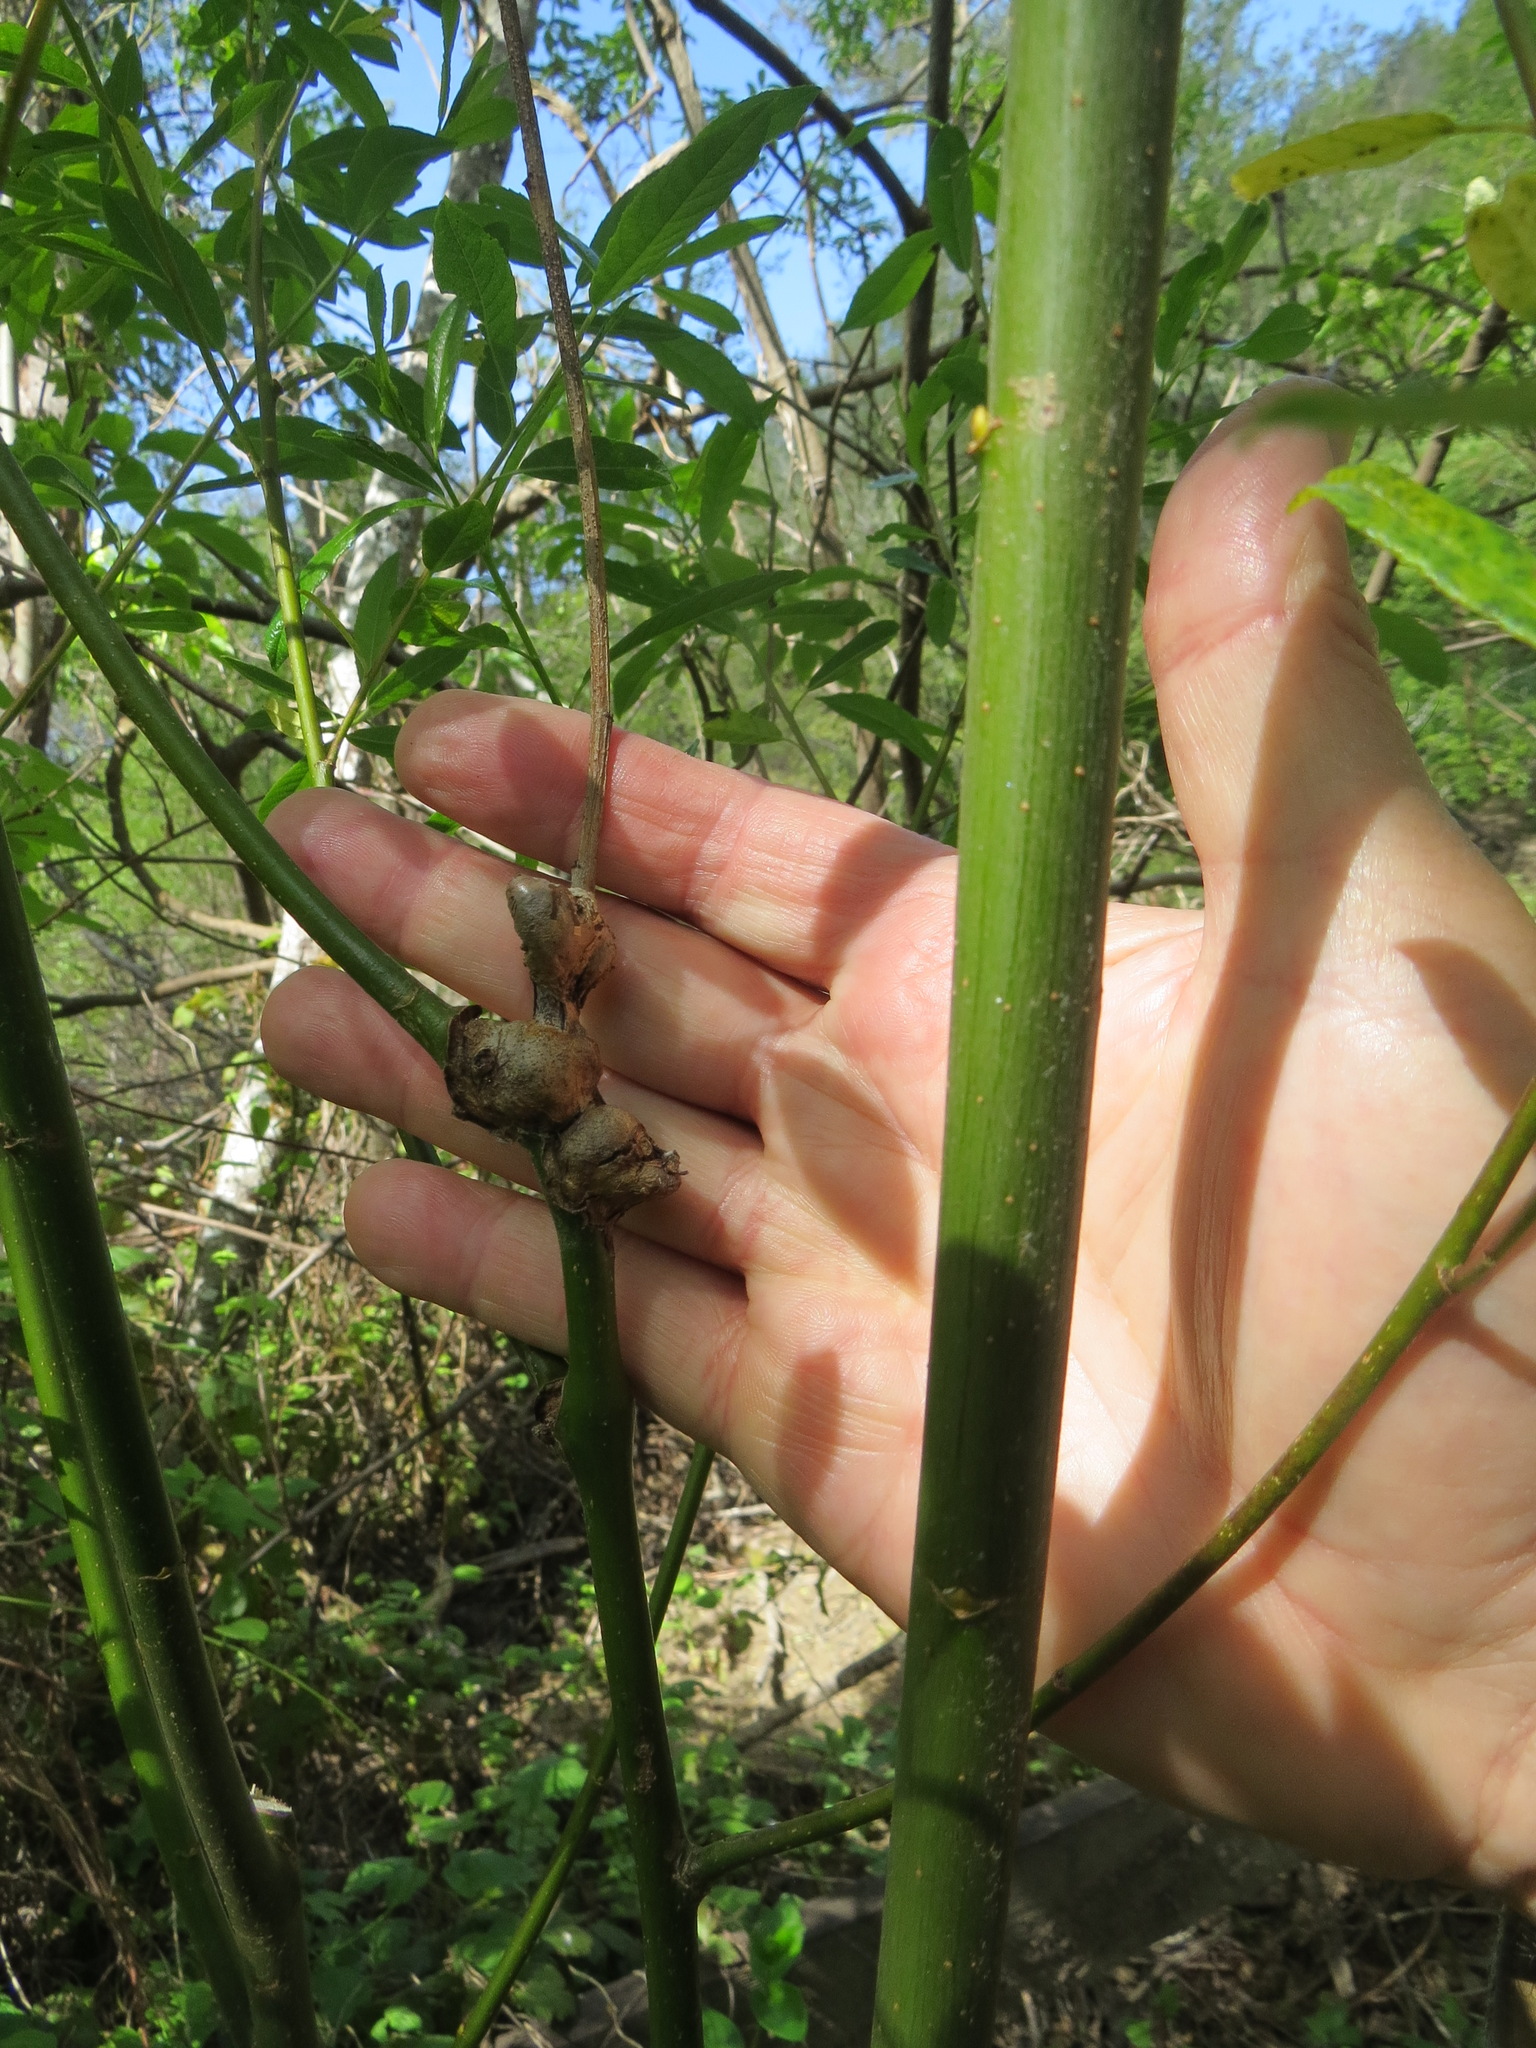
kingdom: Animalia
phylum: Arthropoda
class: Insecta
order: Diptera
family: Cecidomyiidae
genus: Rabdophaga
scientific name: Rabdophaga salicisbatatas
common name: Potato gall midge
